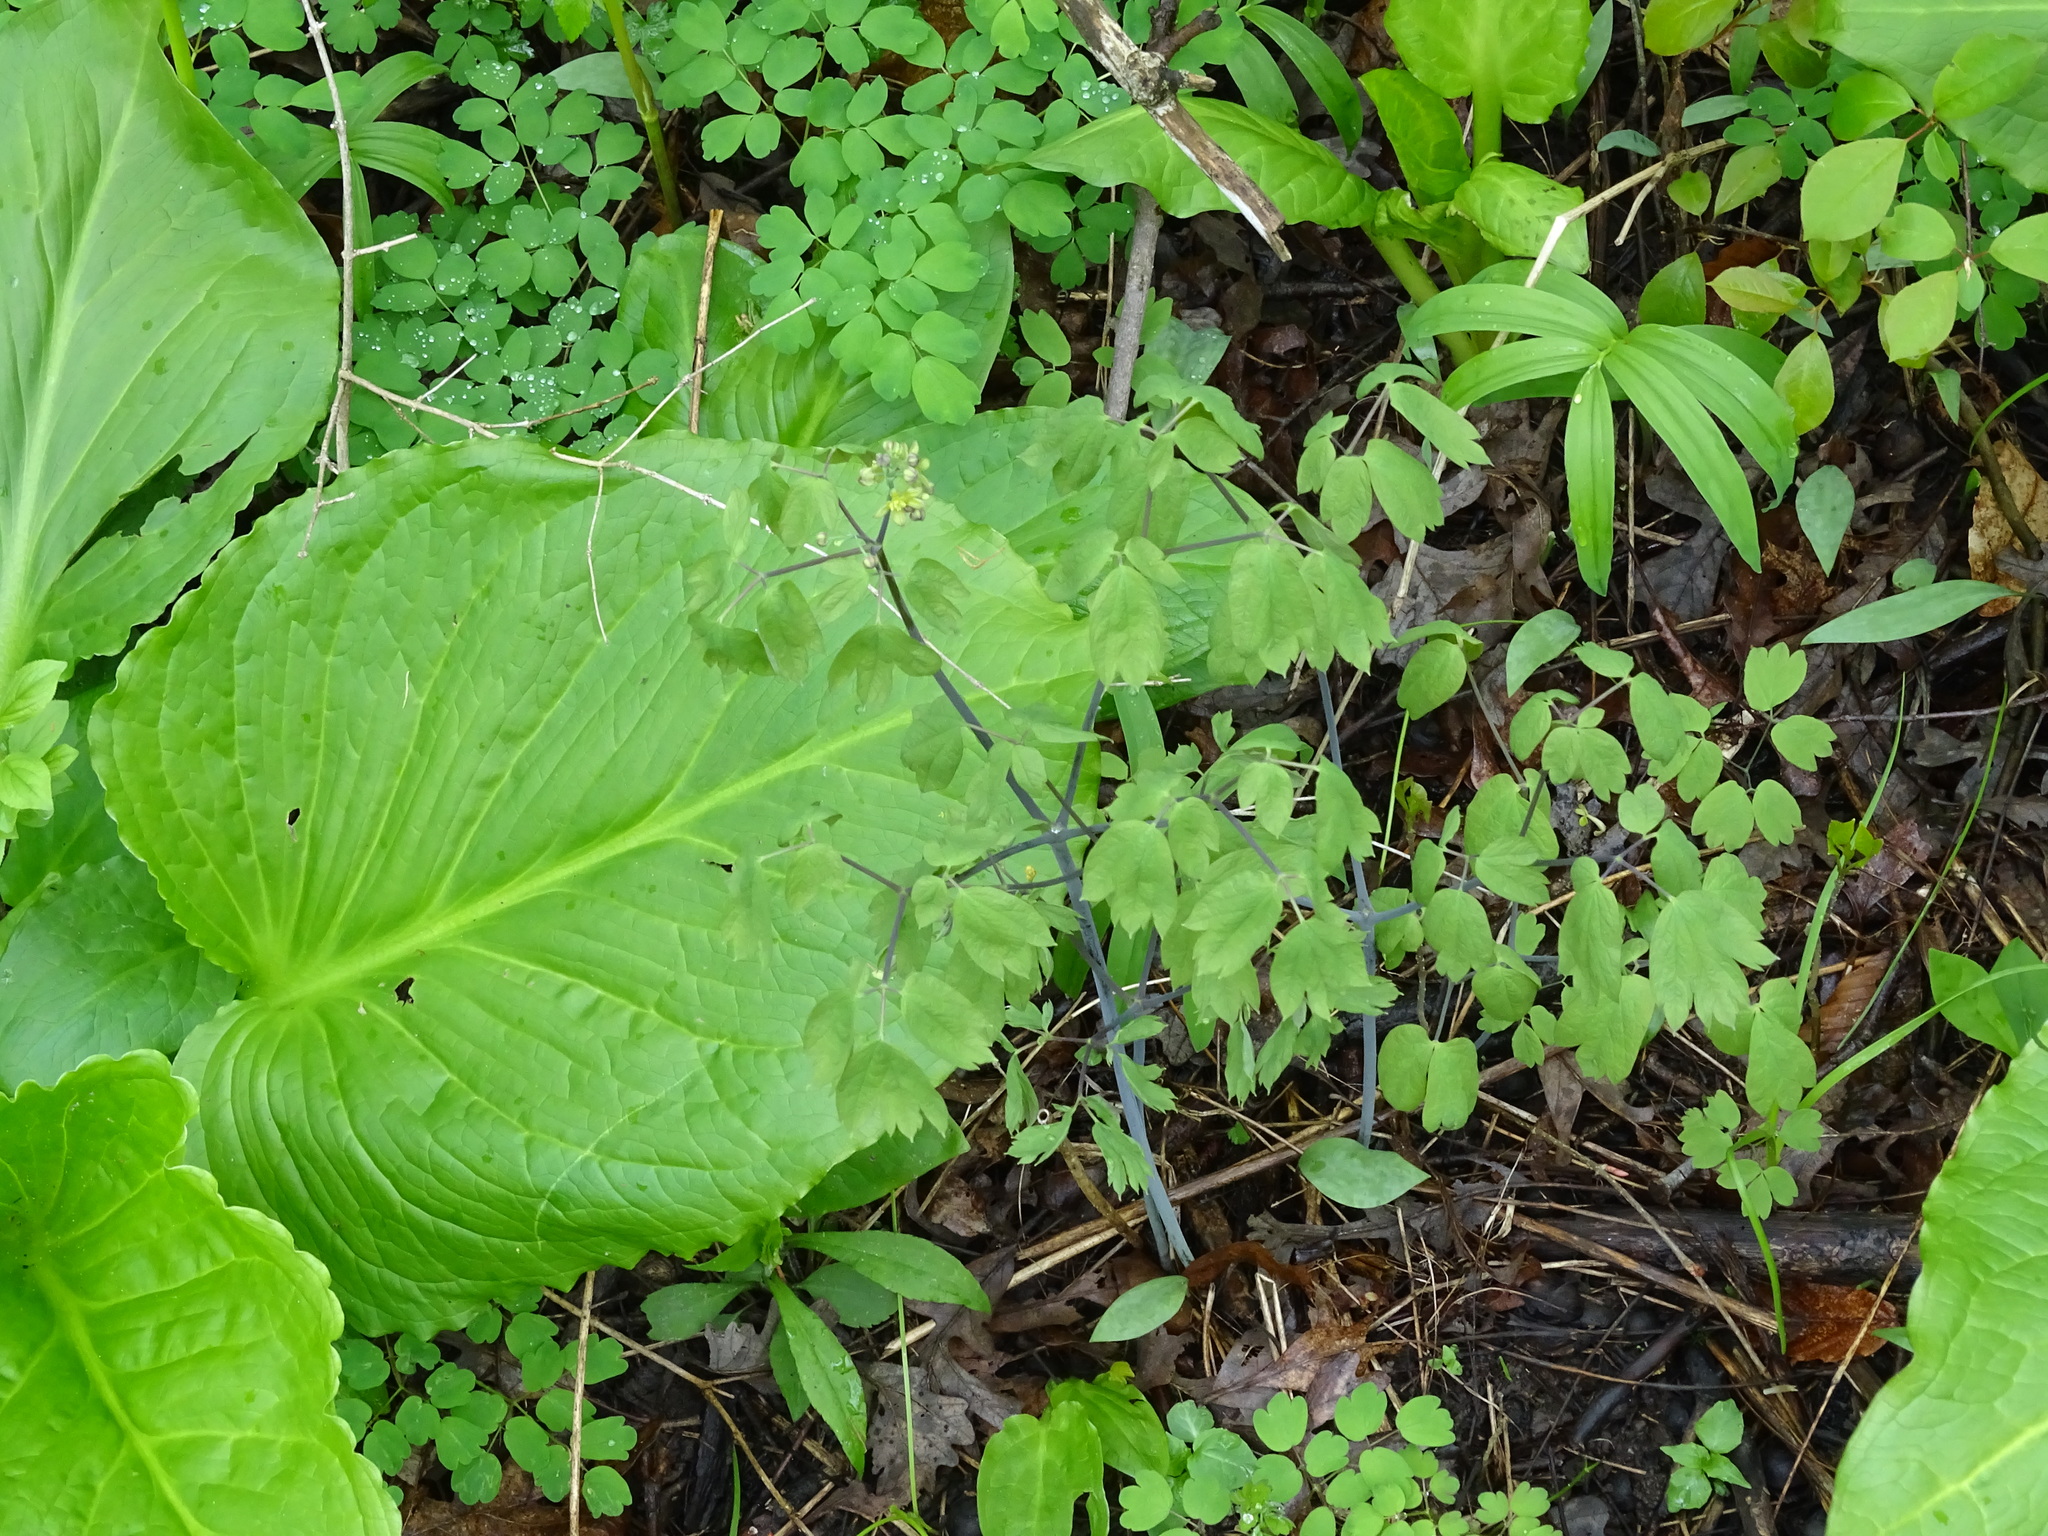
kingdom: Plantae
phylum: Tracheophyta
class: Magnoliopsida
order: Ranunculales
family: Berberidaceae
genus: Caulophyllum
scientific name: Caulophyllum thalictroides
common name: Blue cohosh
